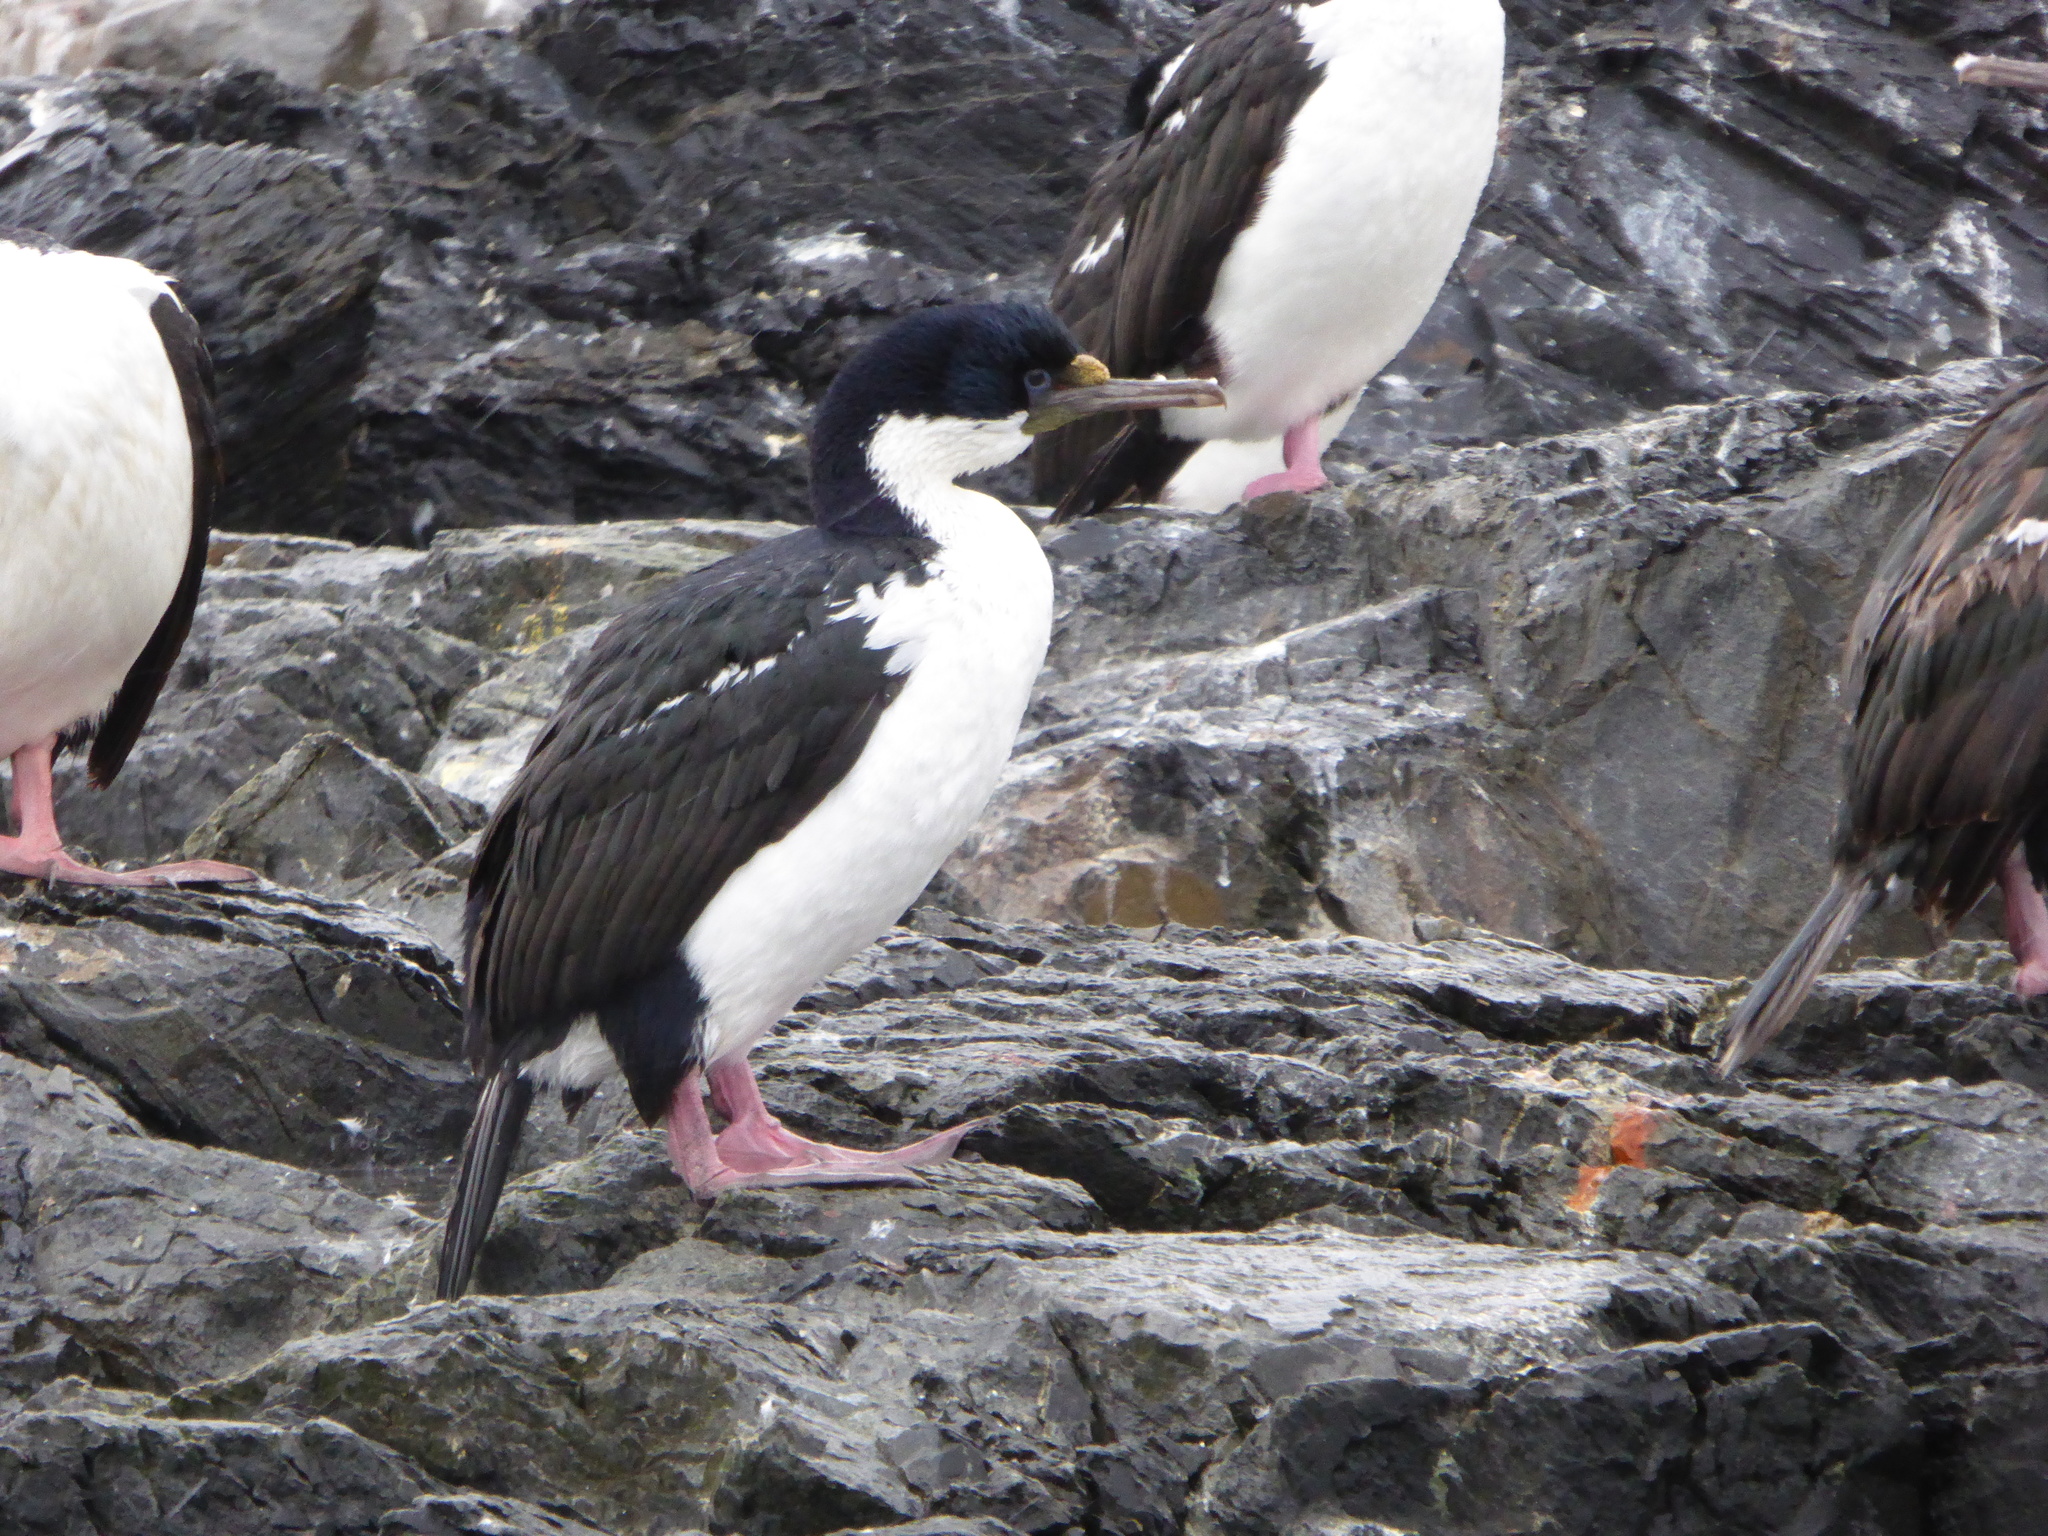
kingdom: Animalia
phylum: Chordata
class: Aves
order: Suliformes
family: Phalacrocoracidae
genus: Leucocarbo
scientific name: Leucocarbo atriceps
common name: Imperial shag
